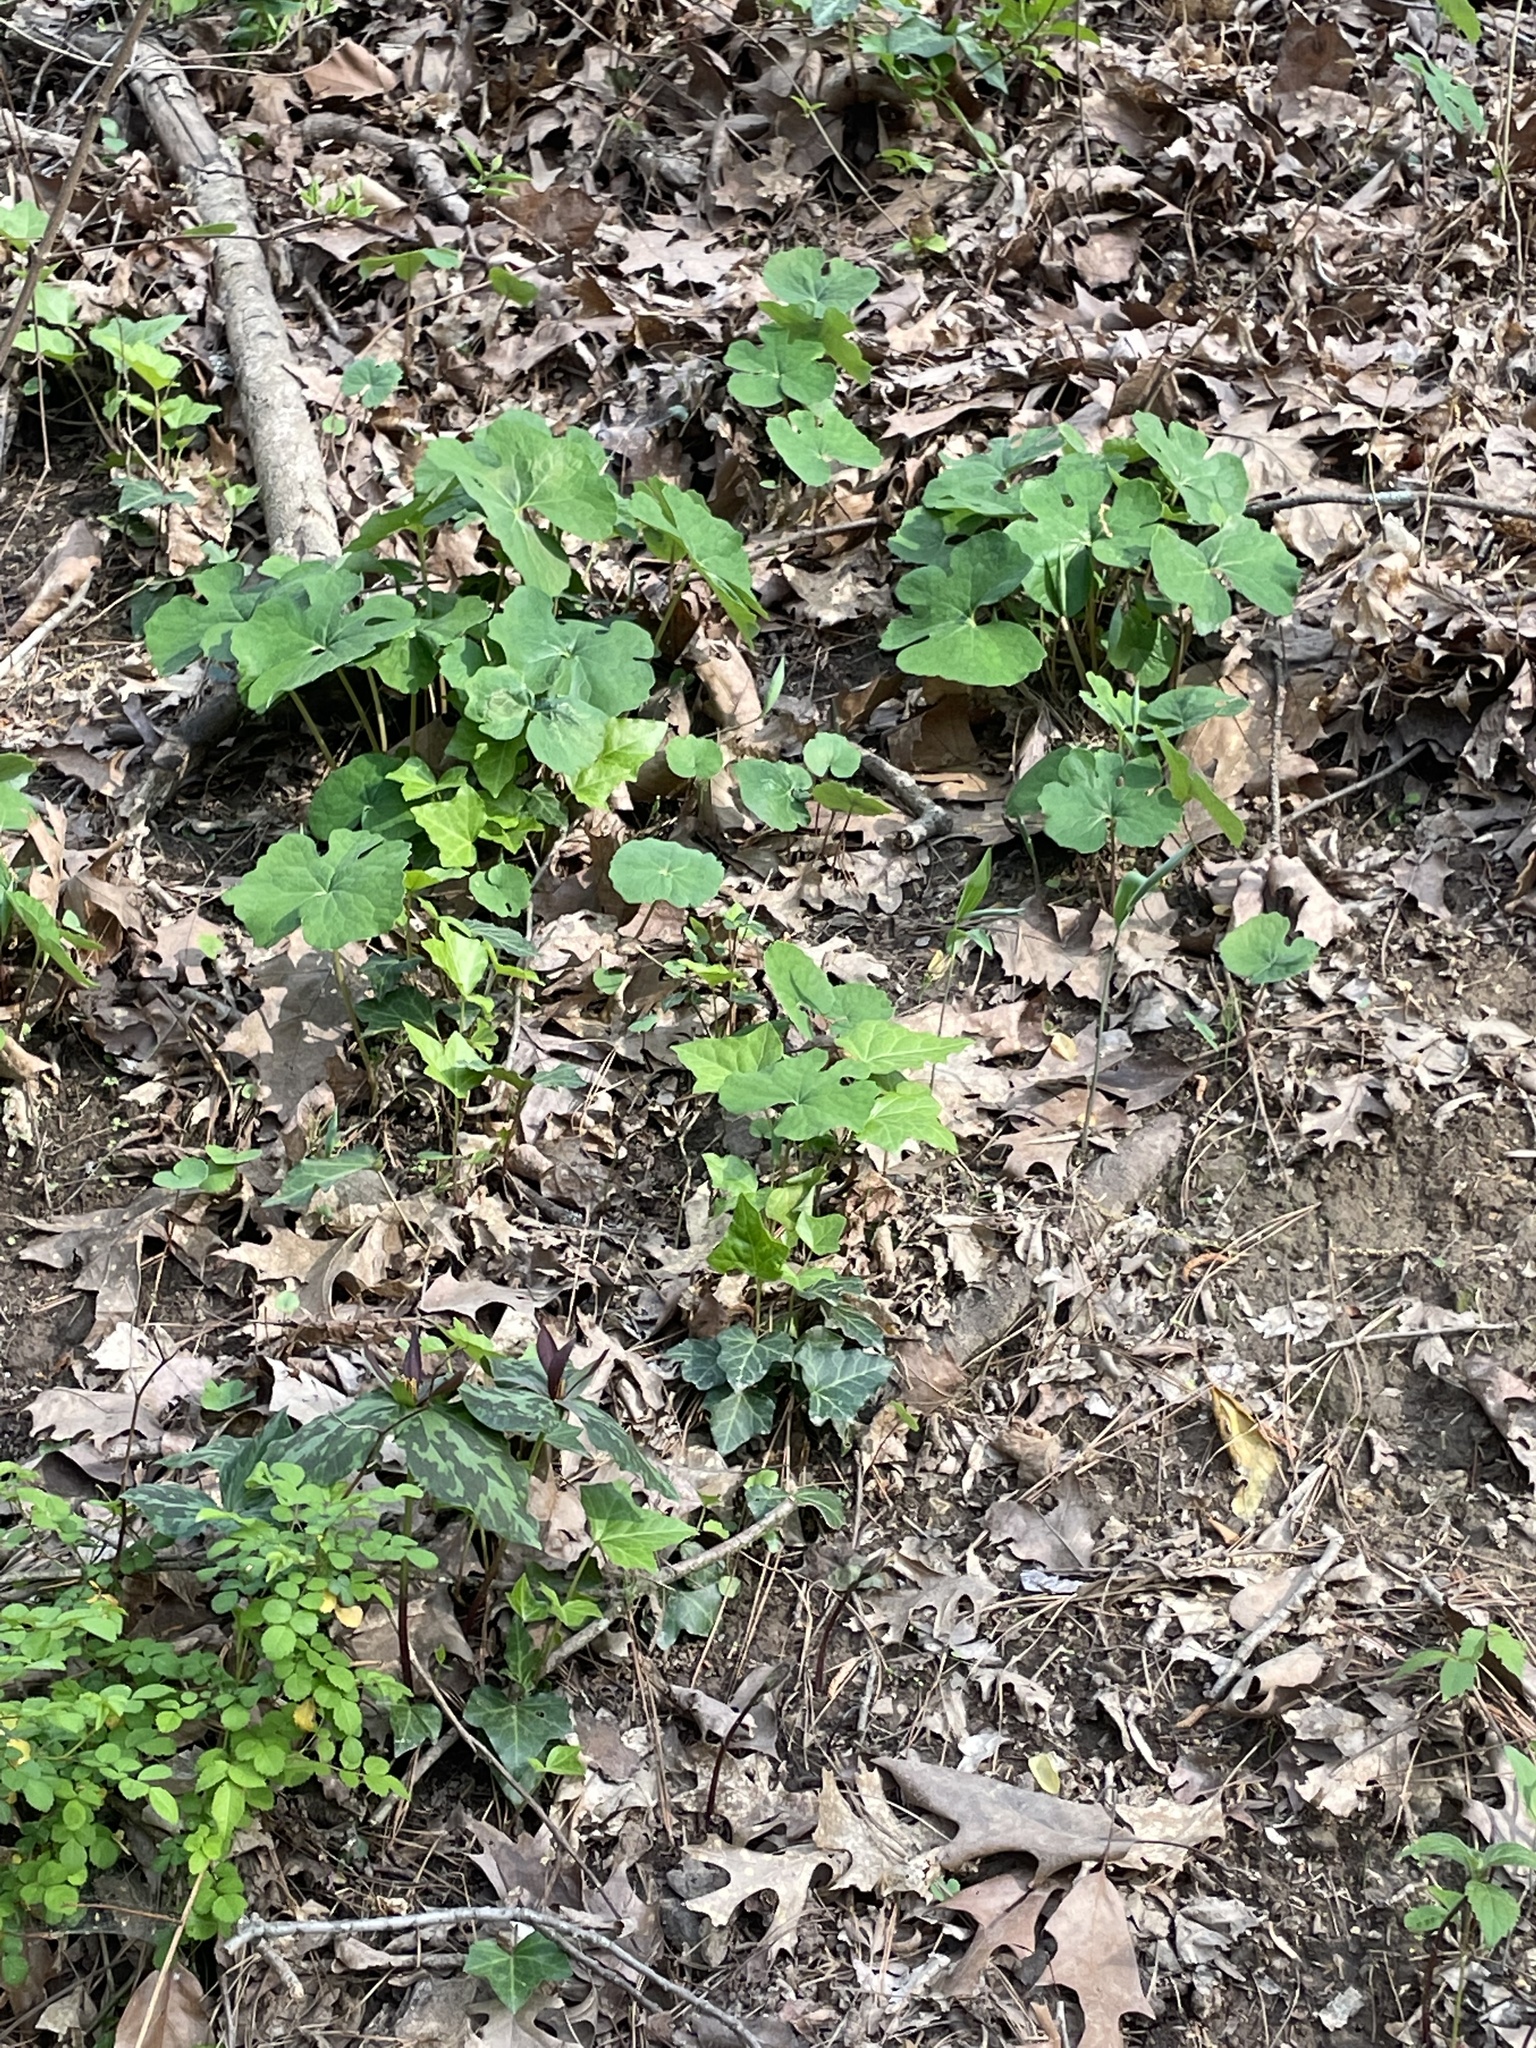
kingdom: Plantae
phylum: Tracheophyta
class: Magnoliopsida
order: Ranunculales
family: Papaveraceae
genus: Sanguinaria
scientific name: Sanguinaria canadensis
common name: Bloodroot
